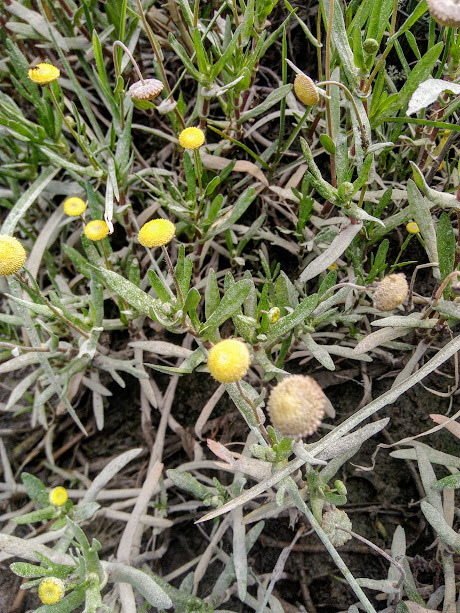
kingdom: Plantae
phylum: Tracheophyta
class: Magnoliopsida
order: Asterales
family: Asteraceae
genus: Cotula
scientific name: Cotula coronopifolia
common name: Buttonweed
